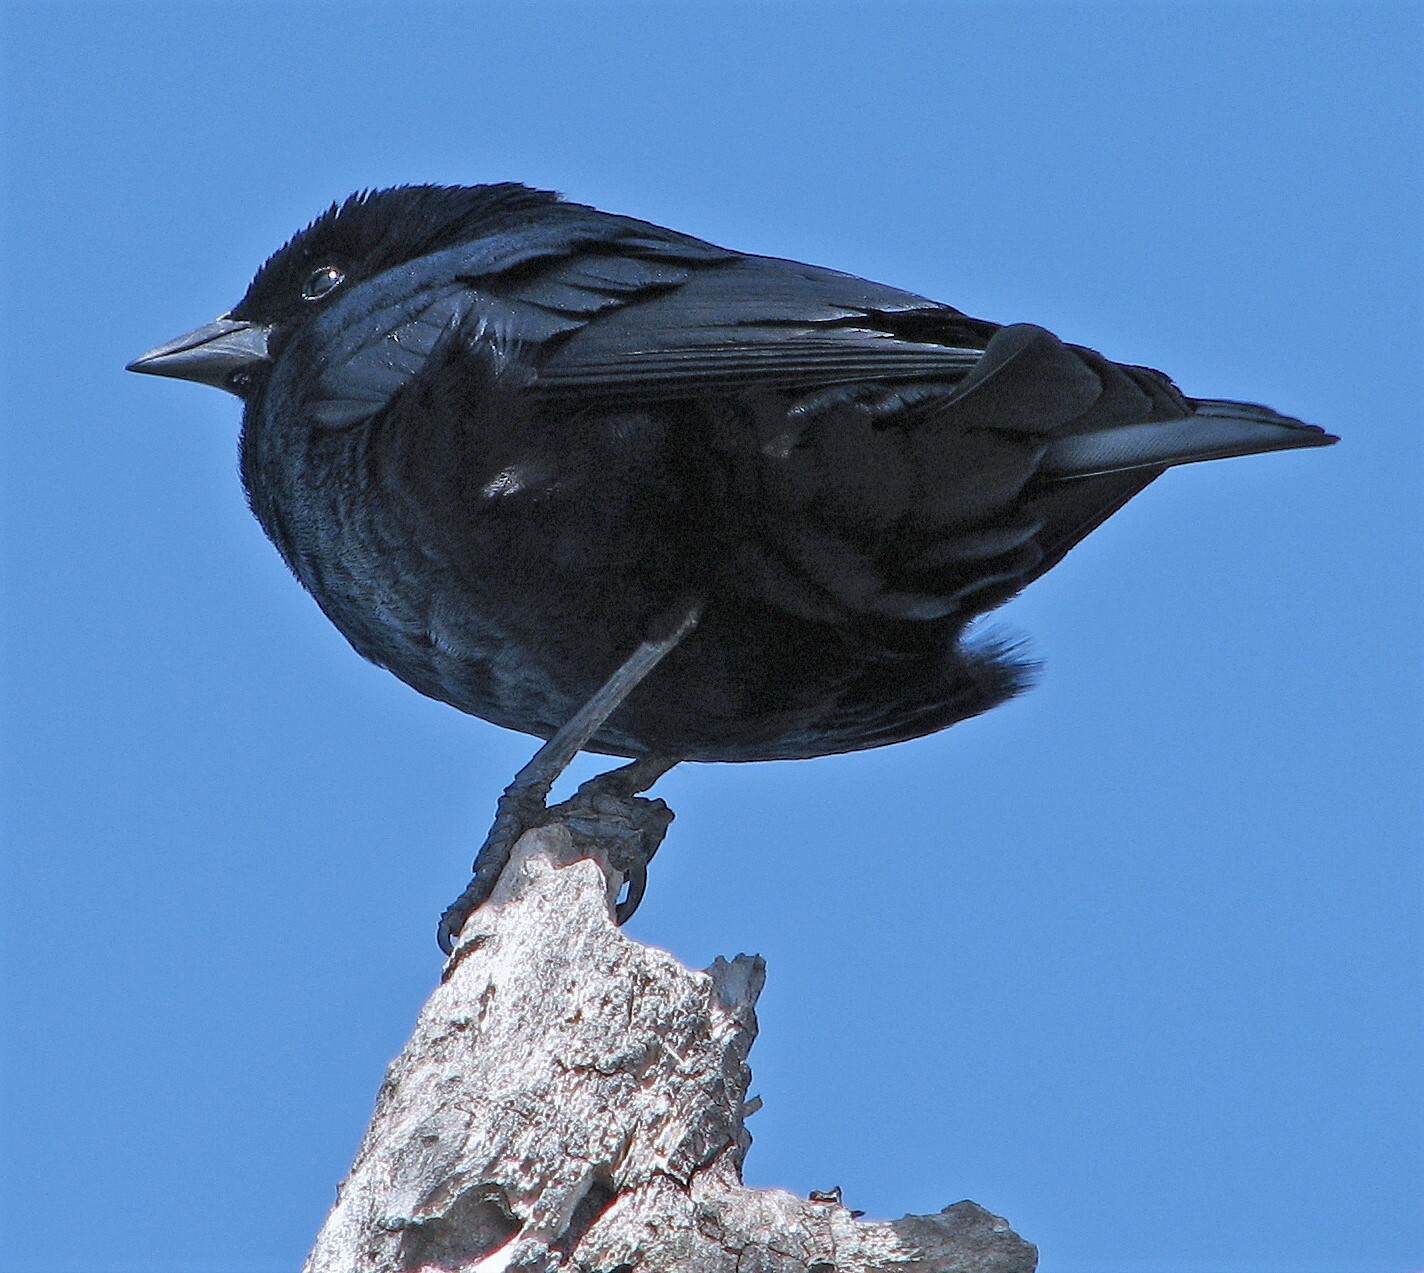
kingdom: Animalia
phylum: Chordata
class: Aves
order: Passeriformes
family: Icteridae
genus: Molothrus
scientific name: Molothrus rufoaxillaris
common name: Screaming cowbird
